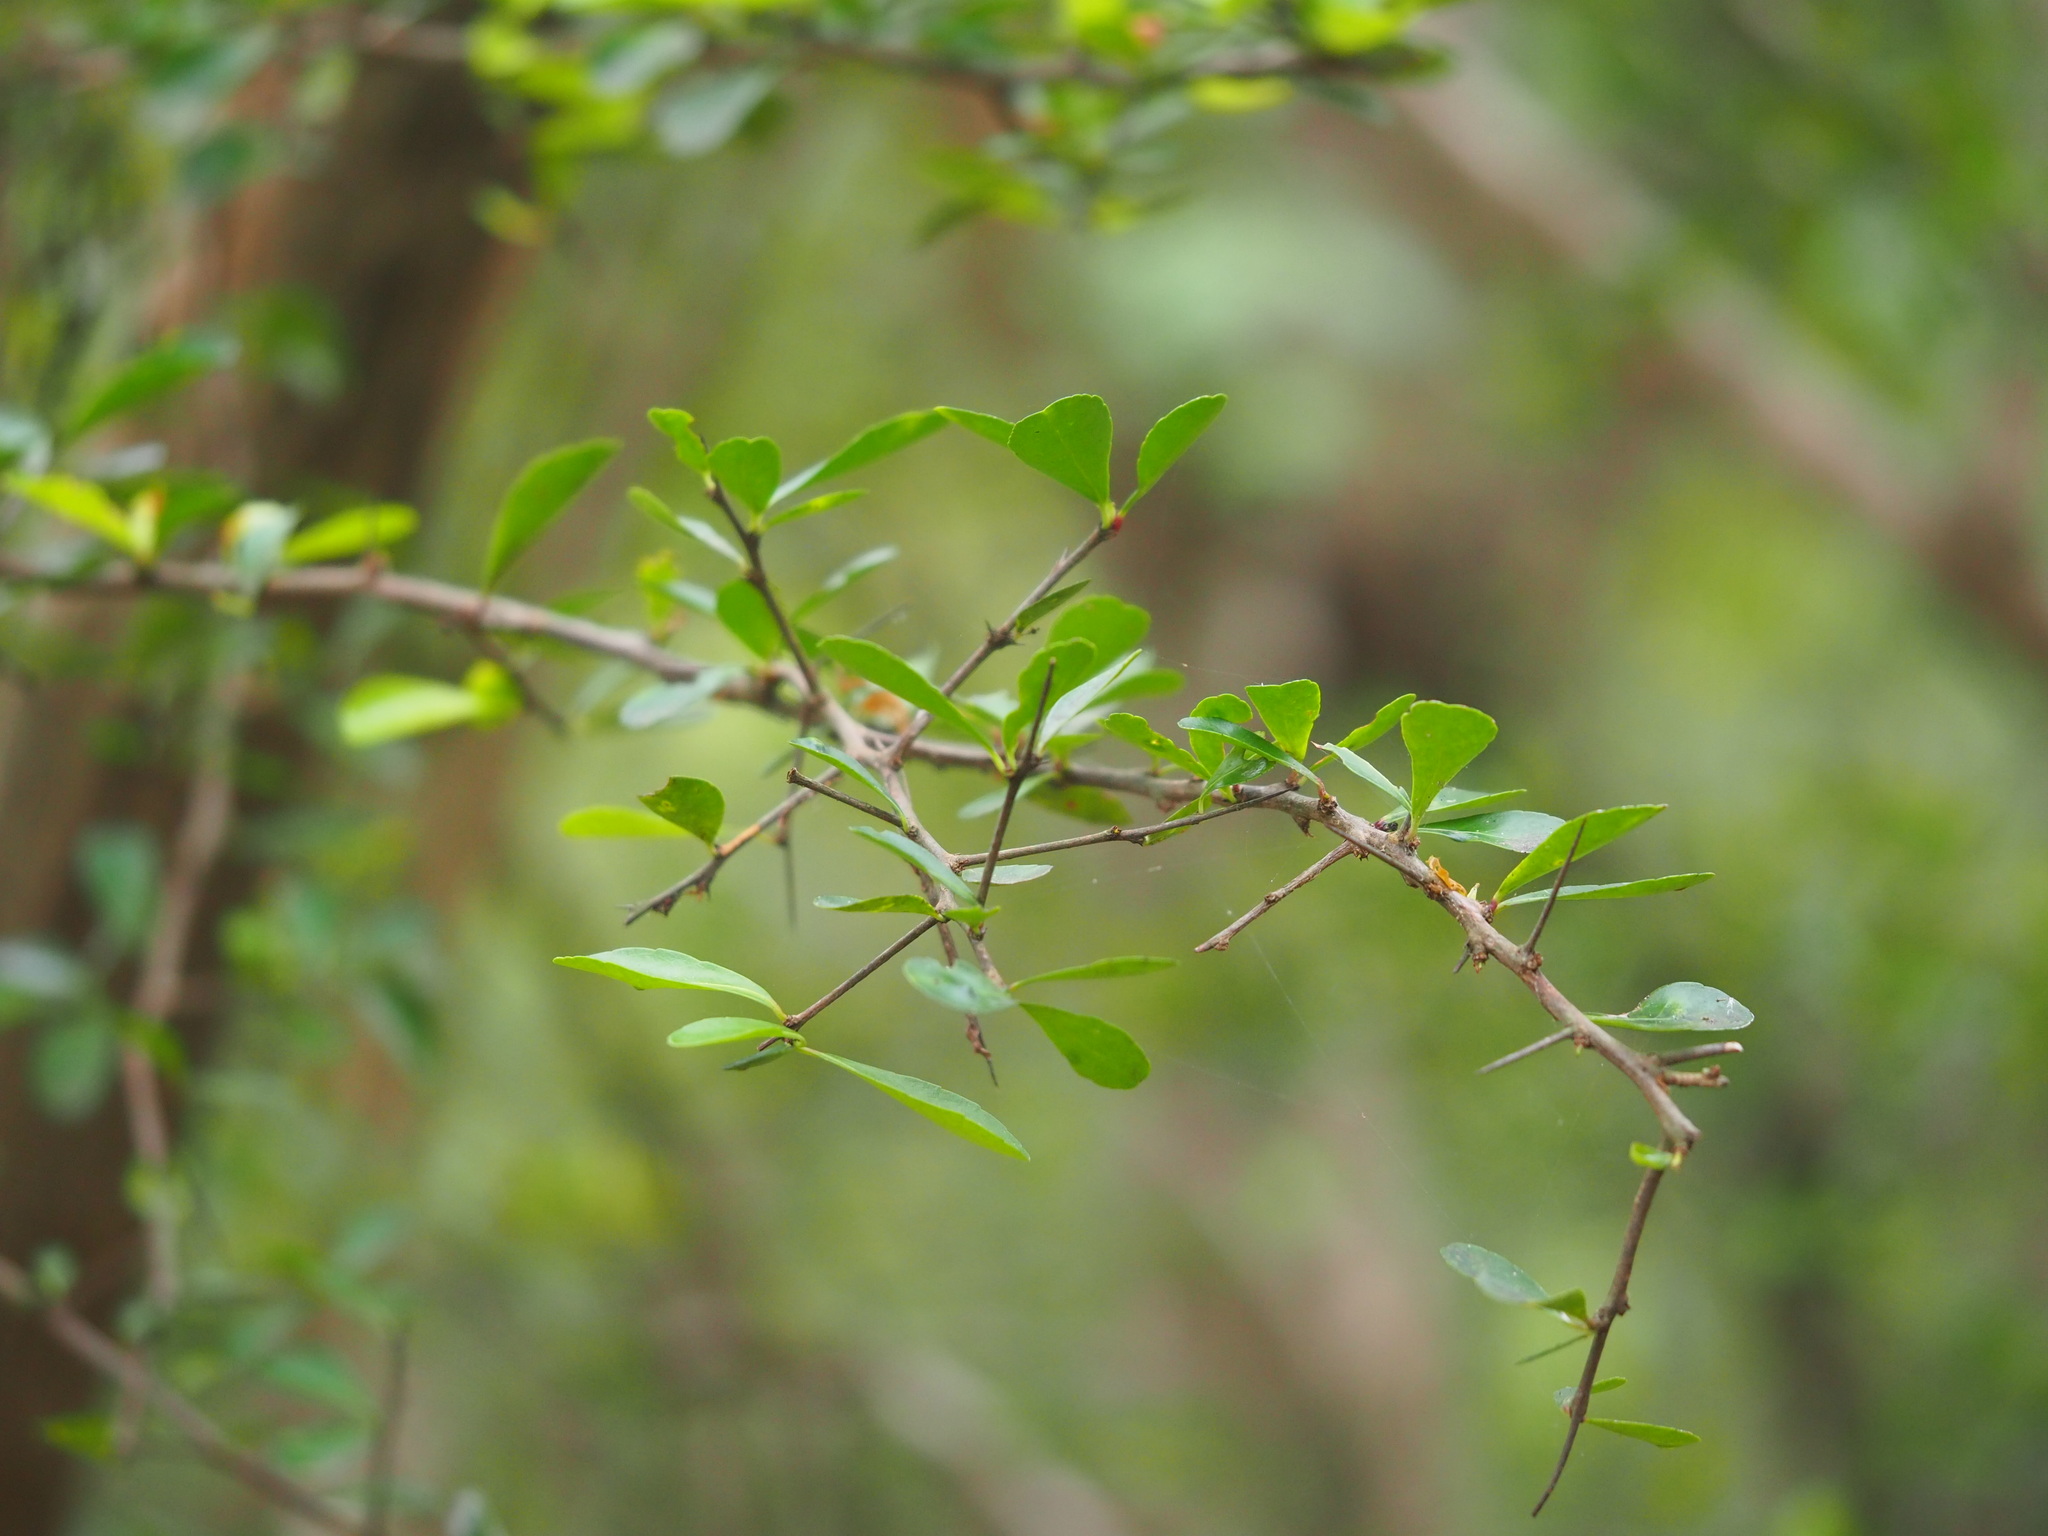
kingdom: Plantae
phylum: Tracheophyta
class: Magnoliopsida
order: Celastrales
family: Celastraceae
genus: Gymnosporia
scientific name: Gymnosporia diversifolia
